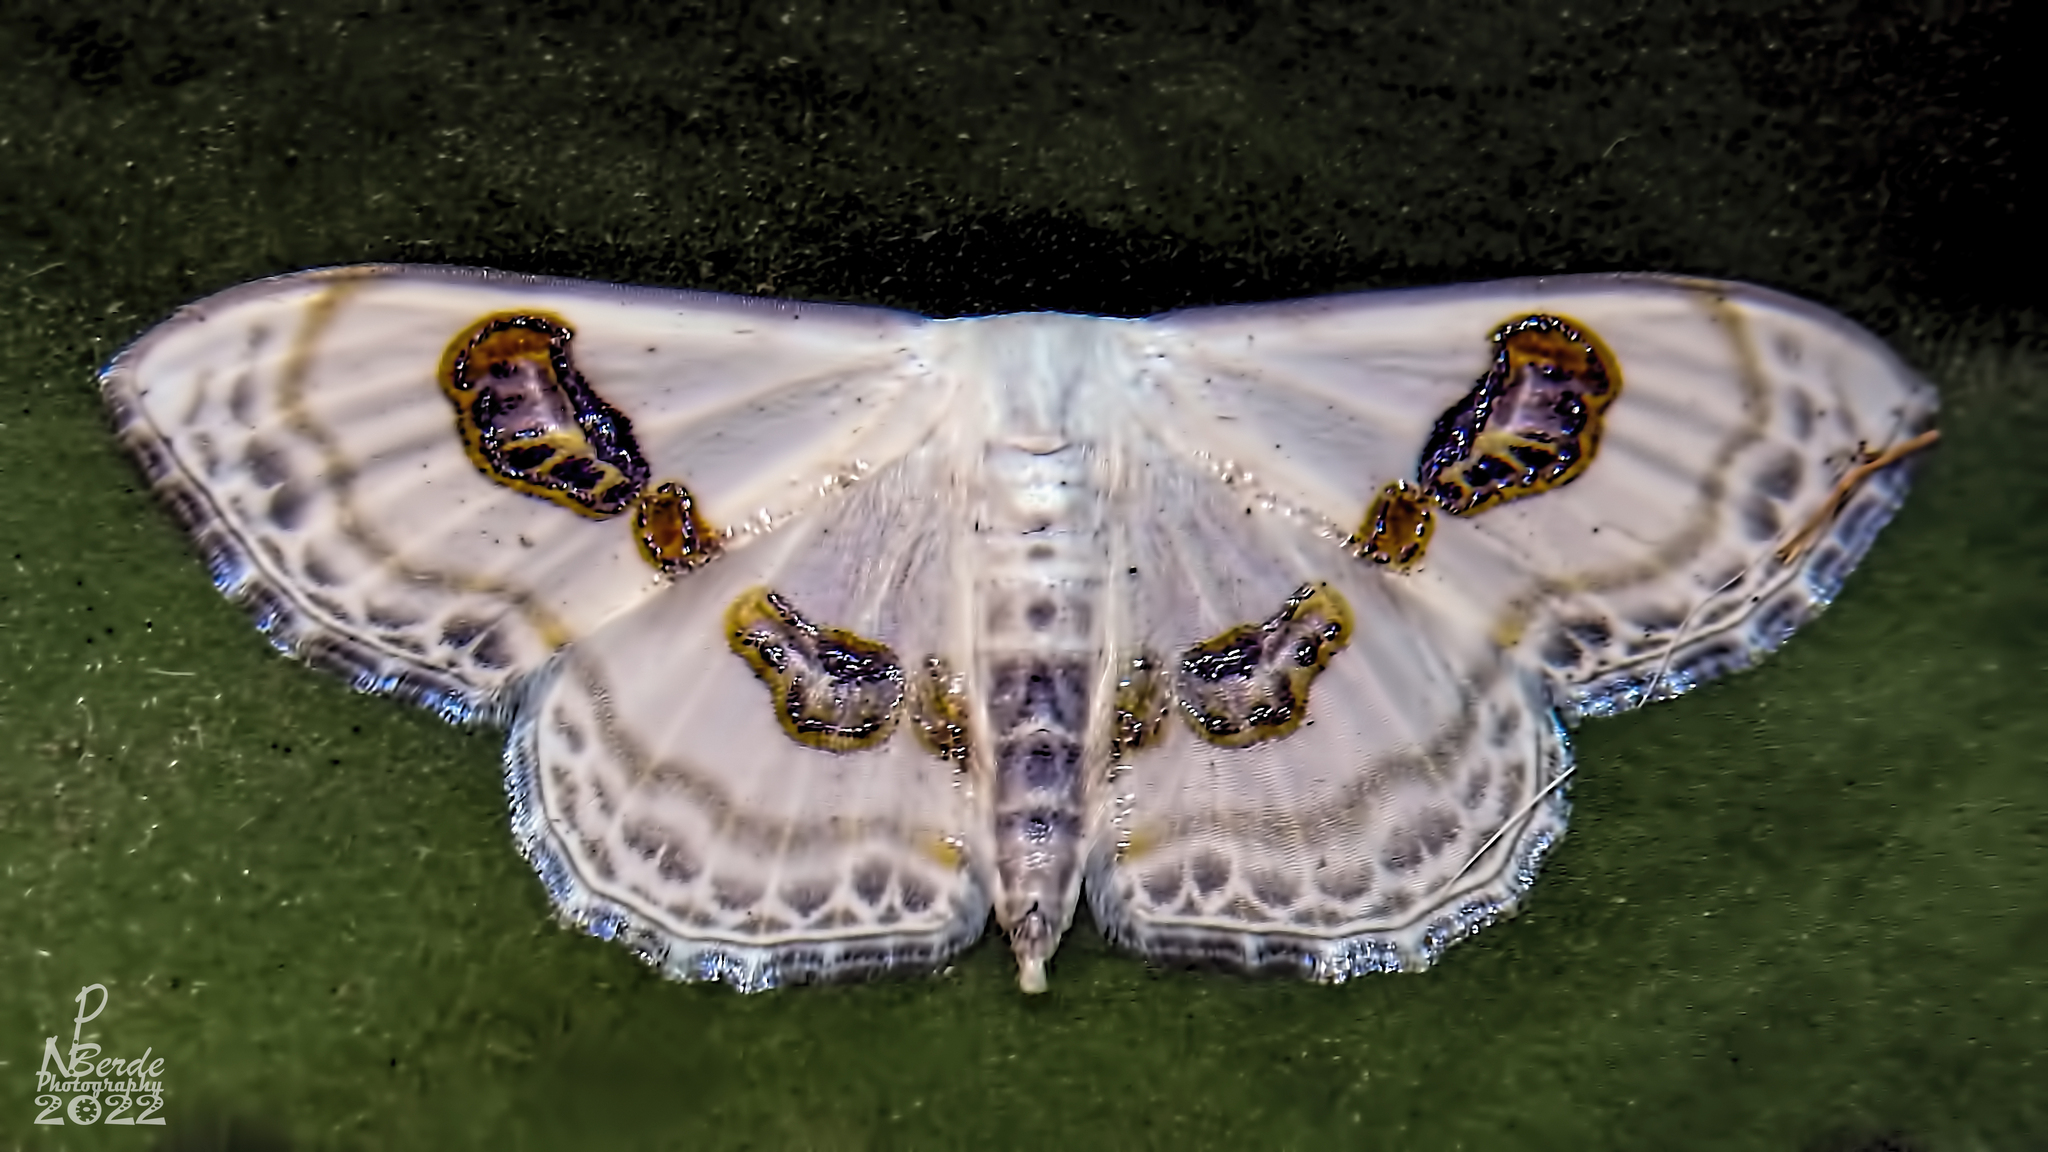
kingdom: Animalia
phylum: Arthropoda
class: Insecta
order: Lepidoptera
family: Geometridae
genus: Problepsis
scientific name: Problepsis vulgaris
